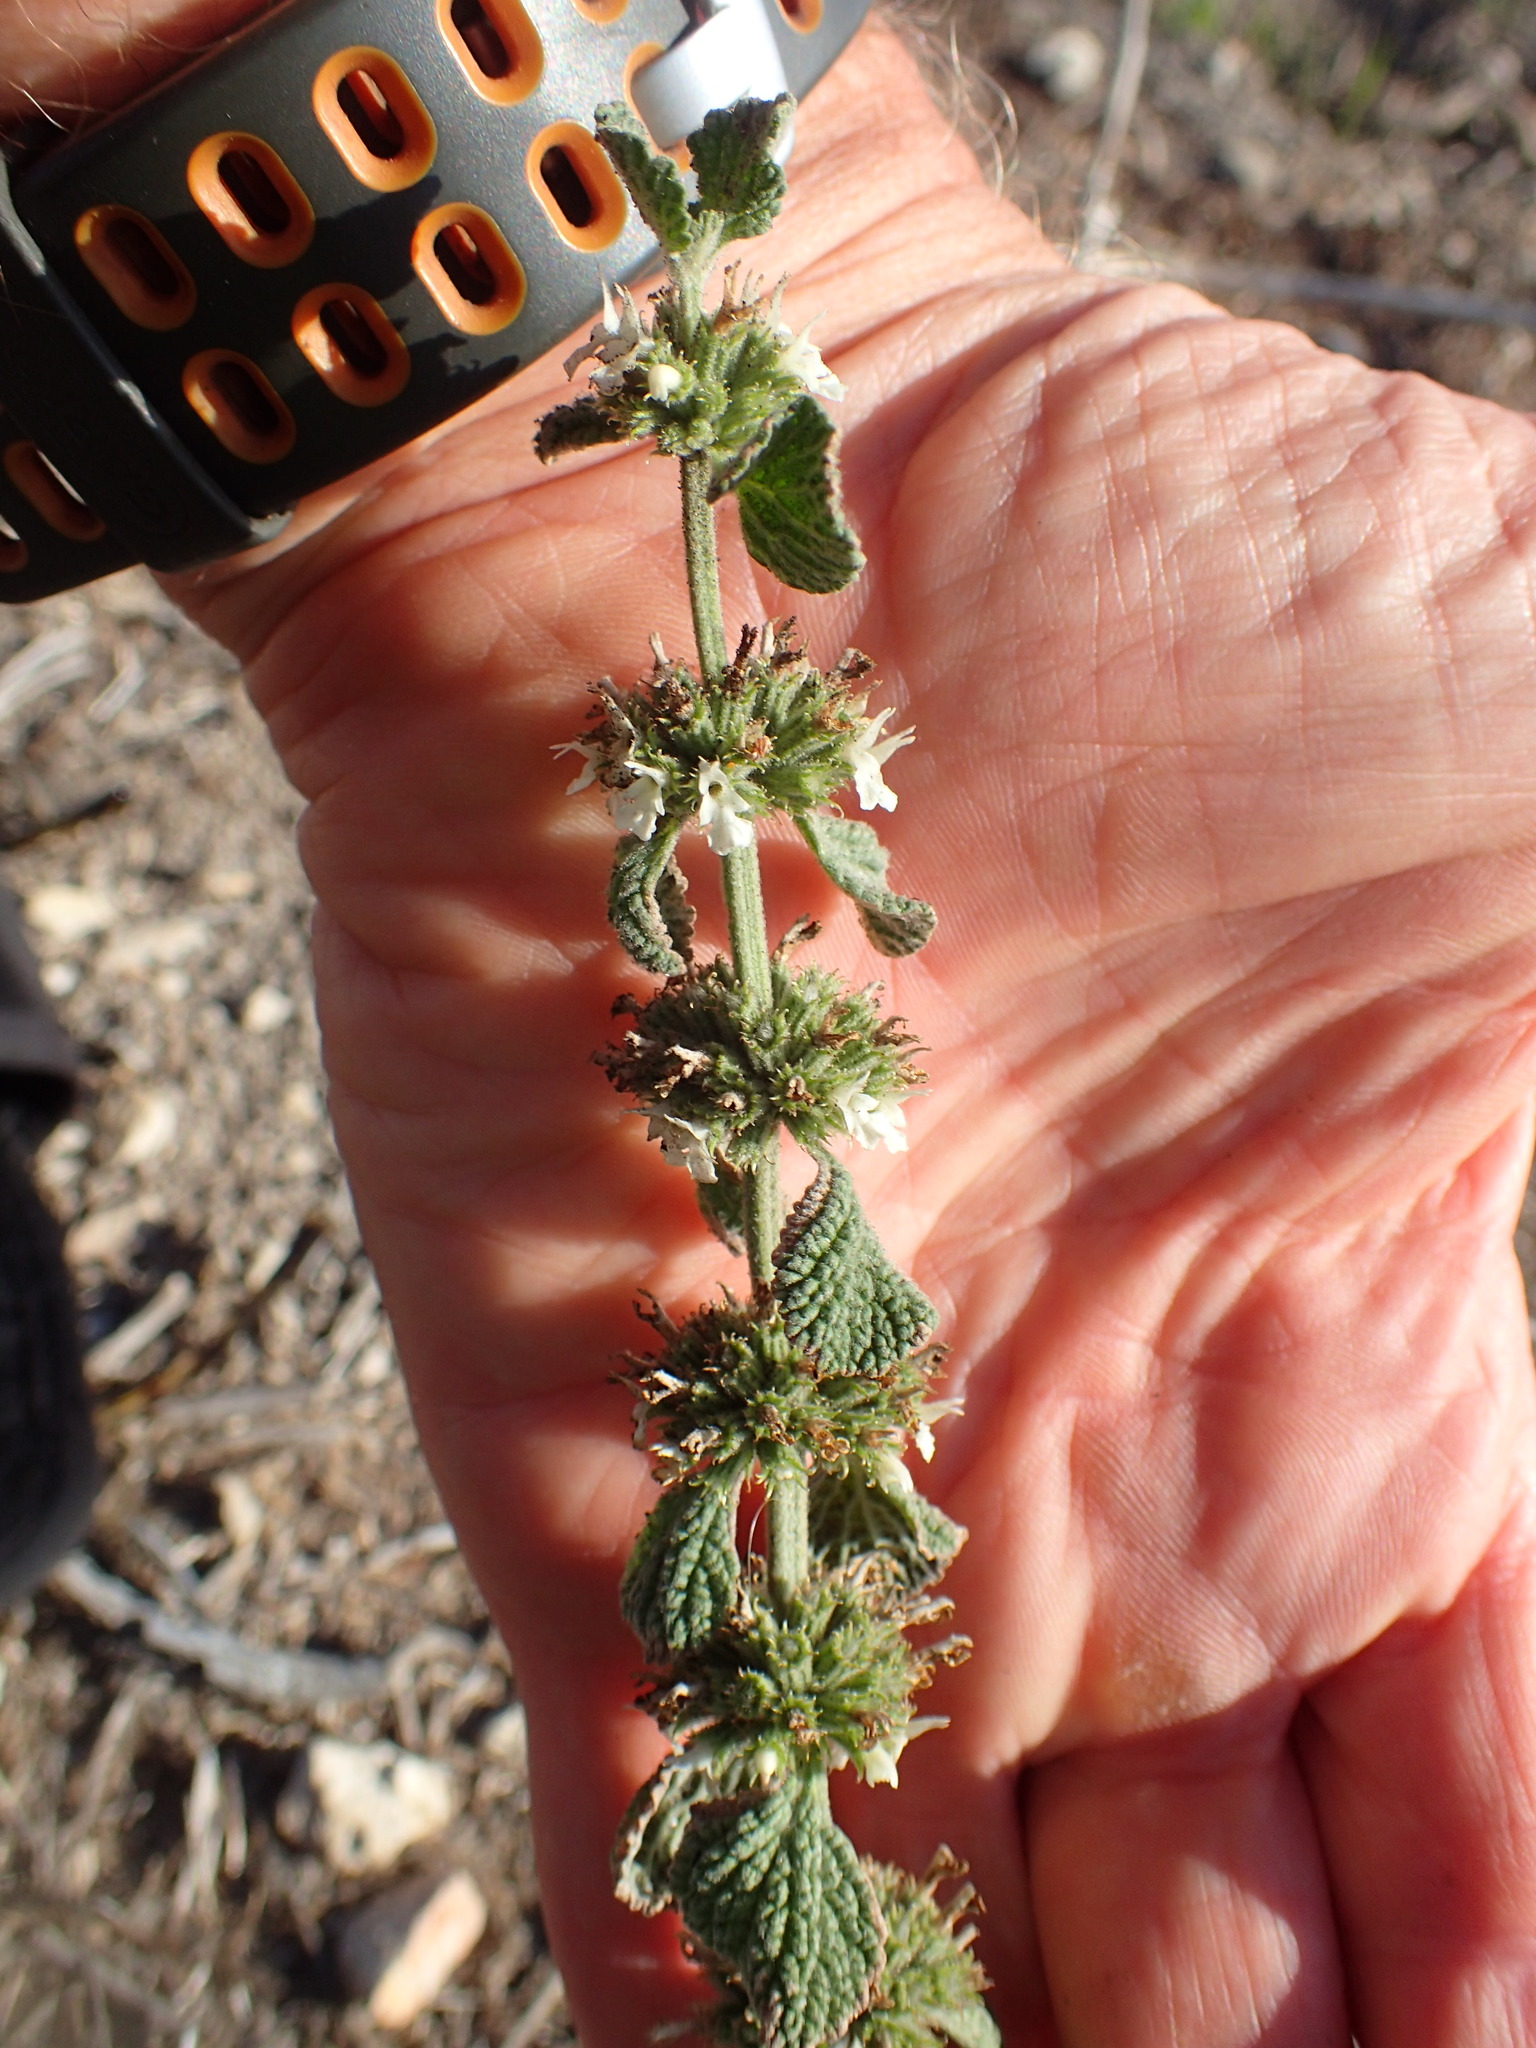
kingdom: Plantae
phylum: Tracheophyta
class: Magnoliopsida
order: Lamiales
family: Lamiaceae
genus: Marrubium
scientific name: Marrubium vulgare
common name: Horehound
